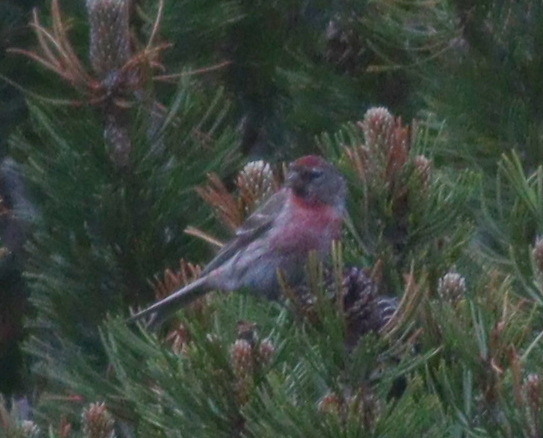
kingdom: Animalia
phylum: Chordata
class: Aves
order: Passeriformes
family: Fringillidae
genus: Acanthis
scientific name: Acanthis flammea
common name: Common redpoll
